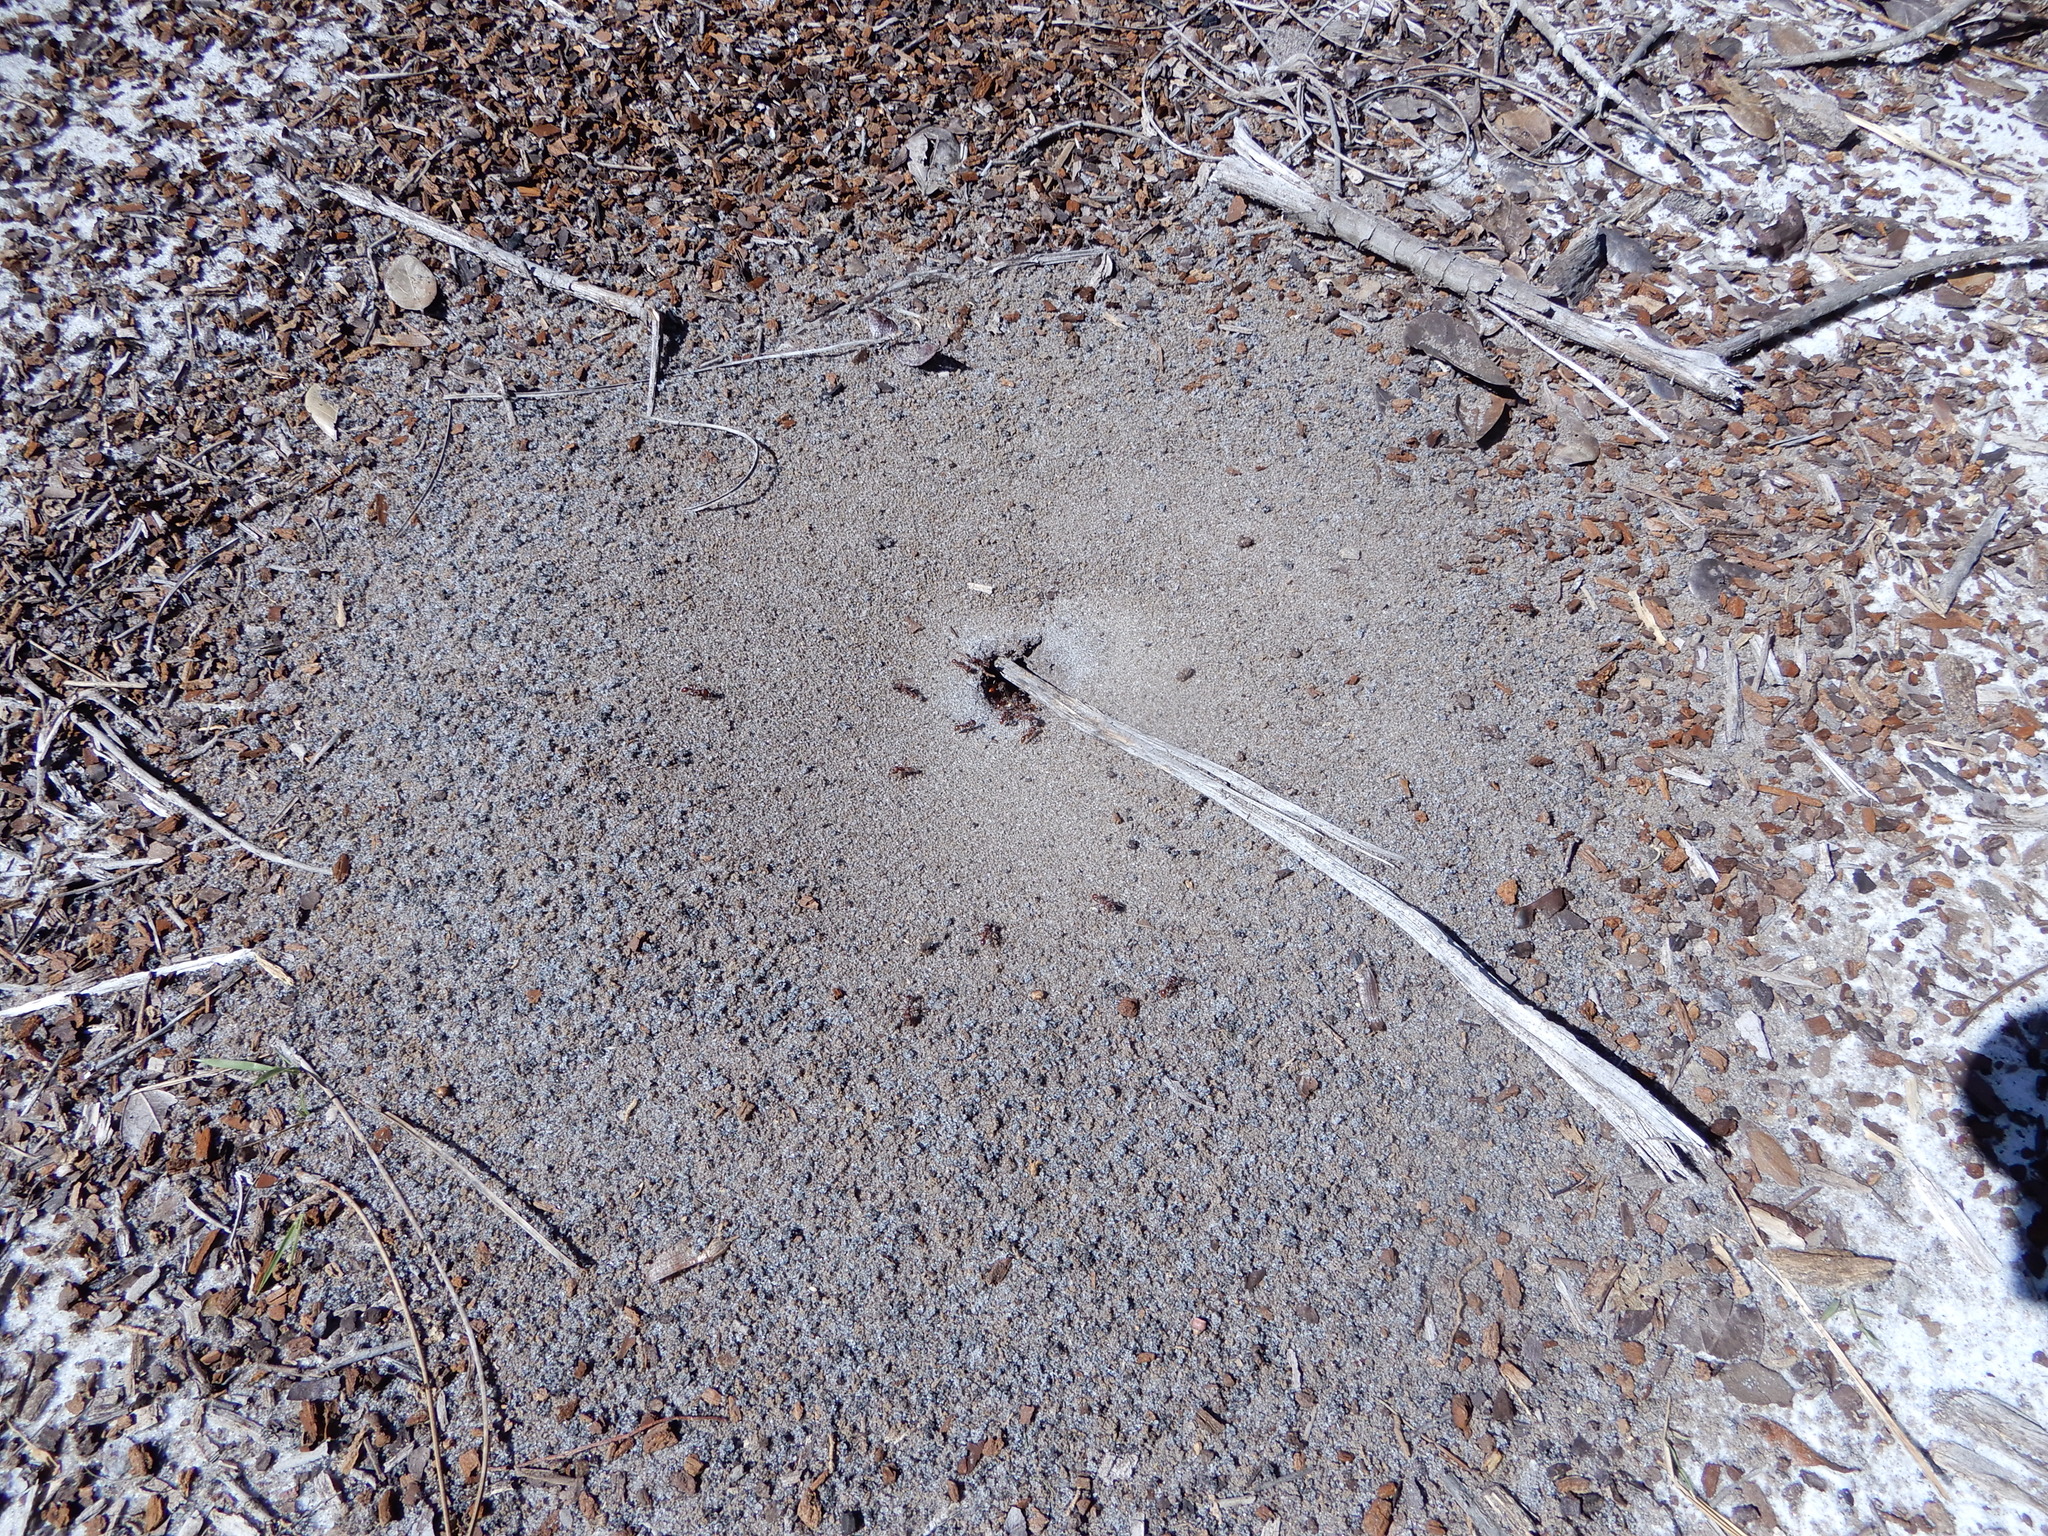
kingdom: Animalia
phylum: Arthropoda
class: Insecta
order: Hymenoptera
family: Formicidae
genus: Pogonomyrmex
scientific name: Pogonomyrmex badius
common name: Florida harvester ant
